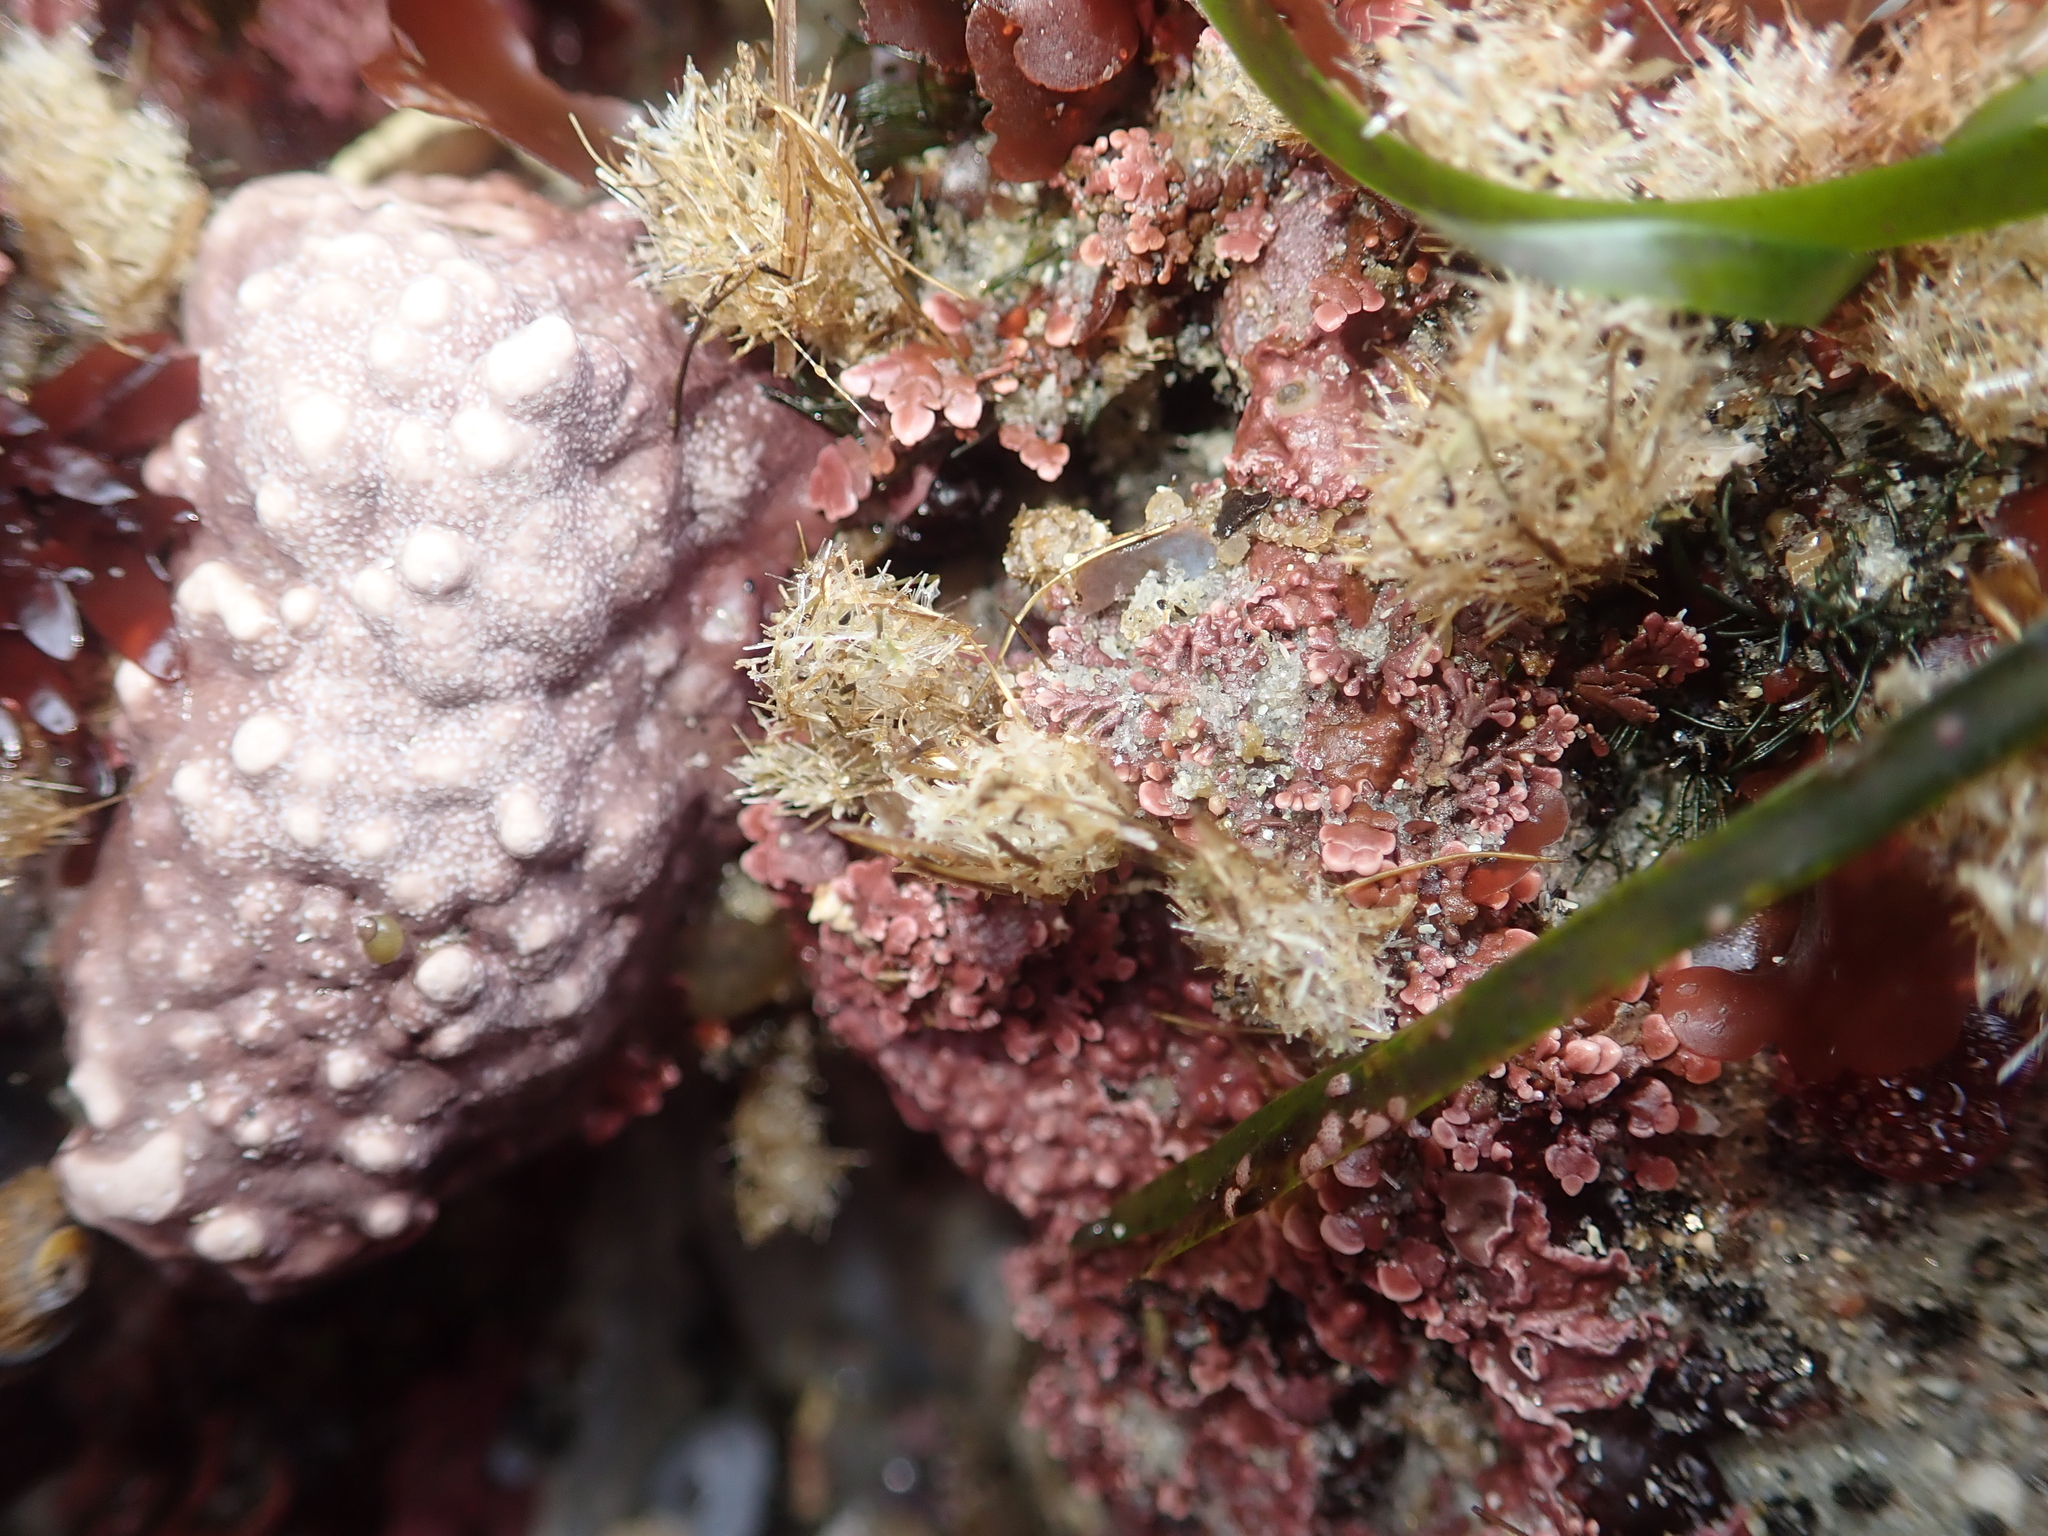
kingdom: Animalia
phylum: Annelida
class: Polychaeta
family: Terebellidae
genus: Pista
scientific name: Pista elongata
